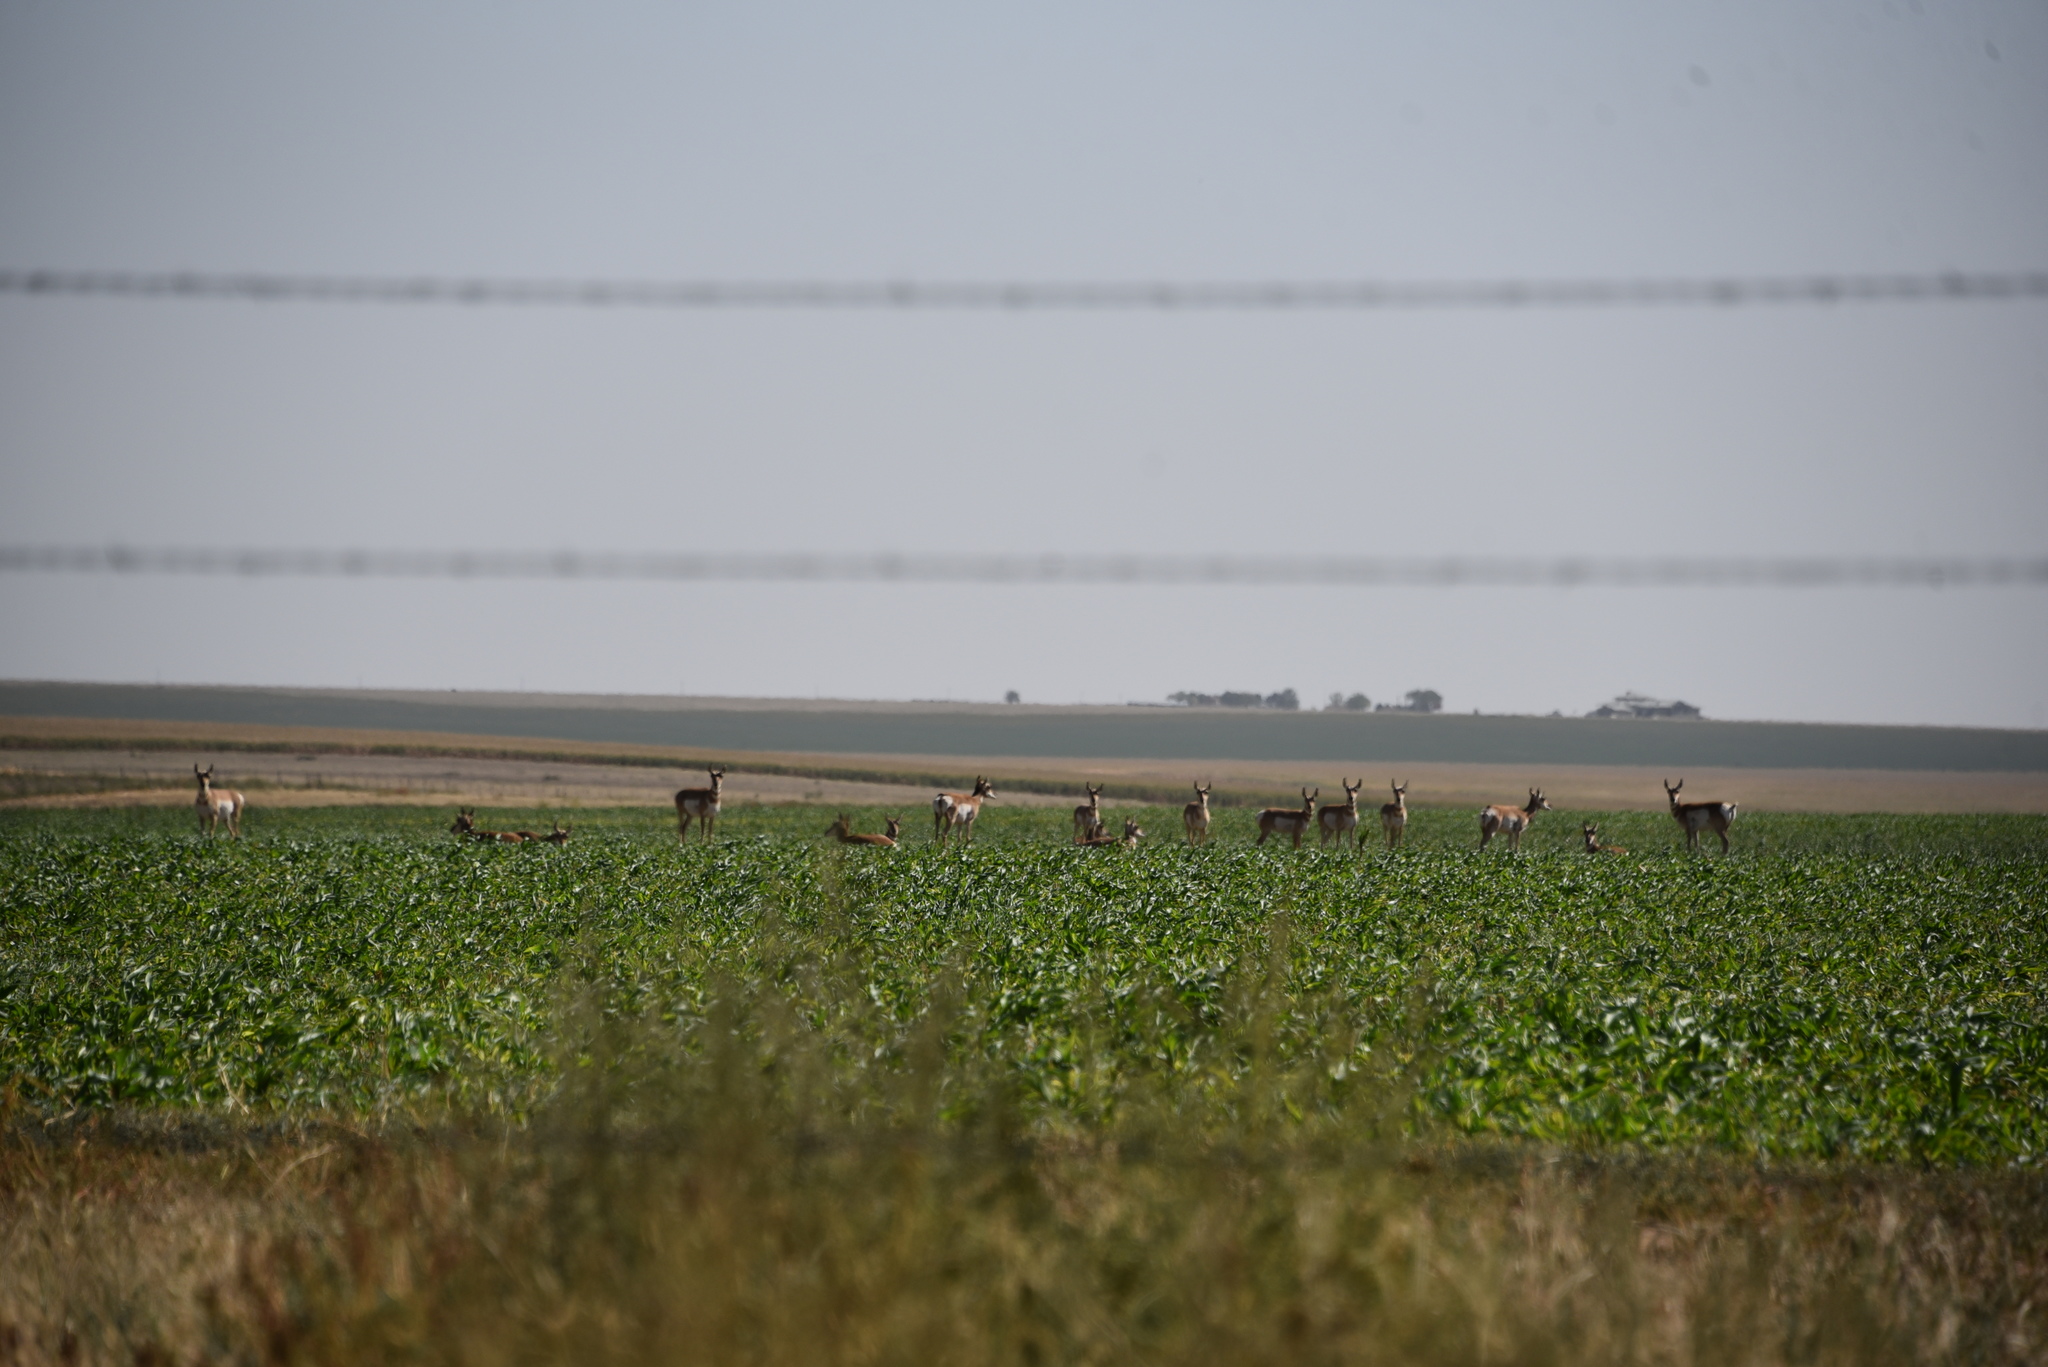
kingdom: Animalia
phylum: Chordata
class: Mammalia
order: Artiodactyla
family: Antilocapridae
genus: Antilocapra
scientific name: Antilocapra americana
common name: Pronghorn
